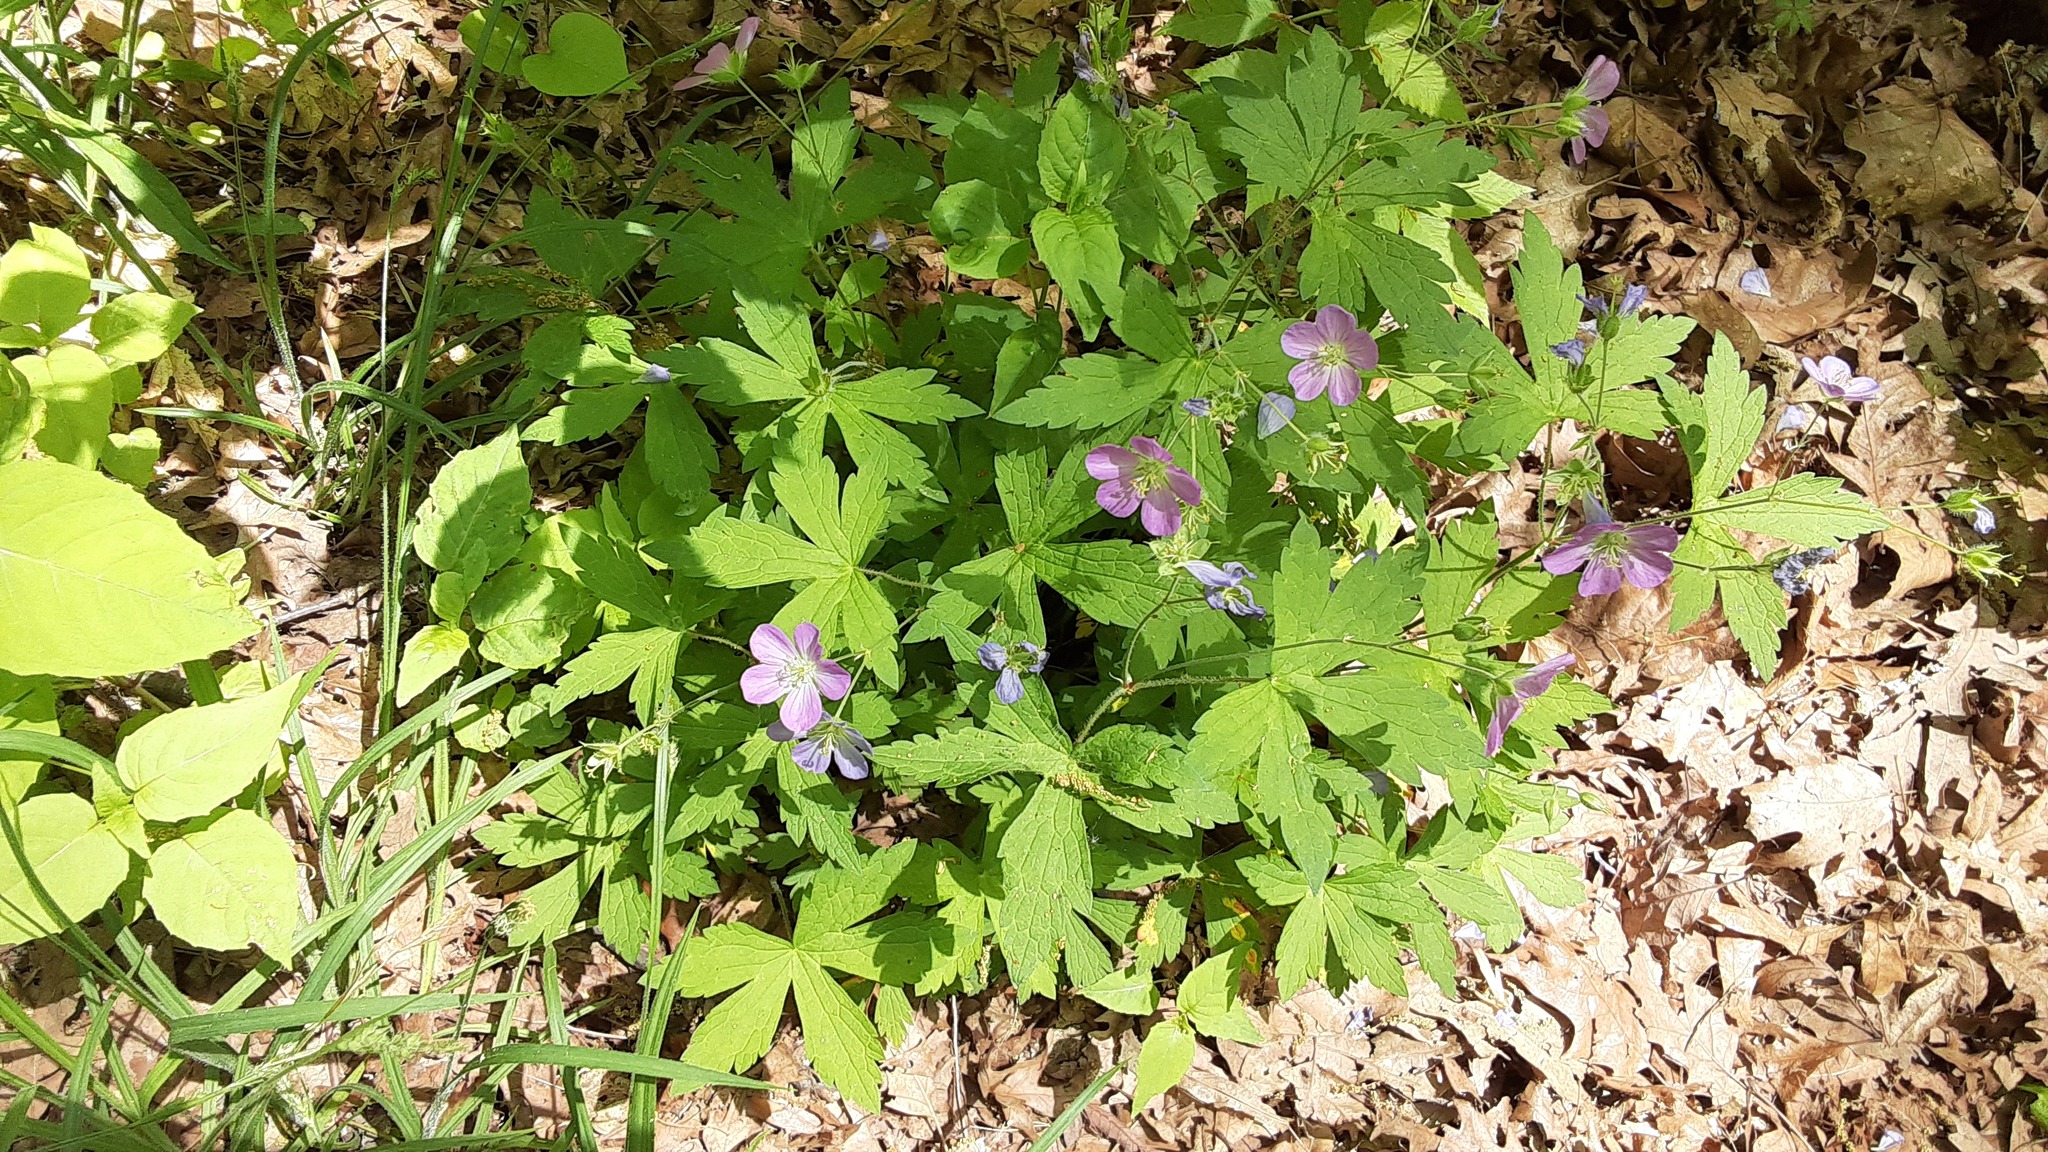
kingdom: Plantae
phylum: Tracheophyta
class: Magnoliopsida
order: Geraniales
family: Geraniaceae
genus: Geranium
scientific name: Geranium maculatum
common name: Spotted geranium
